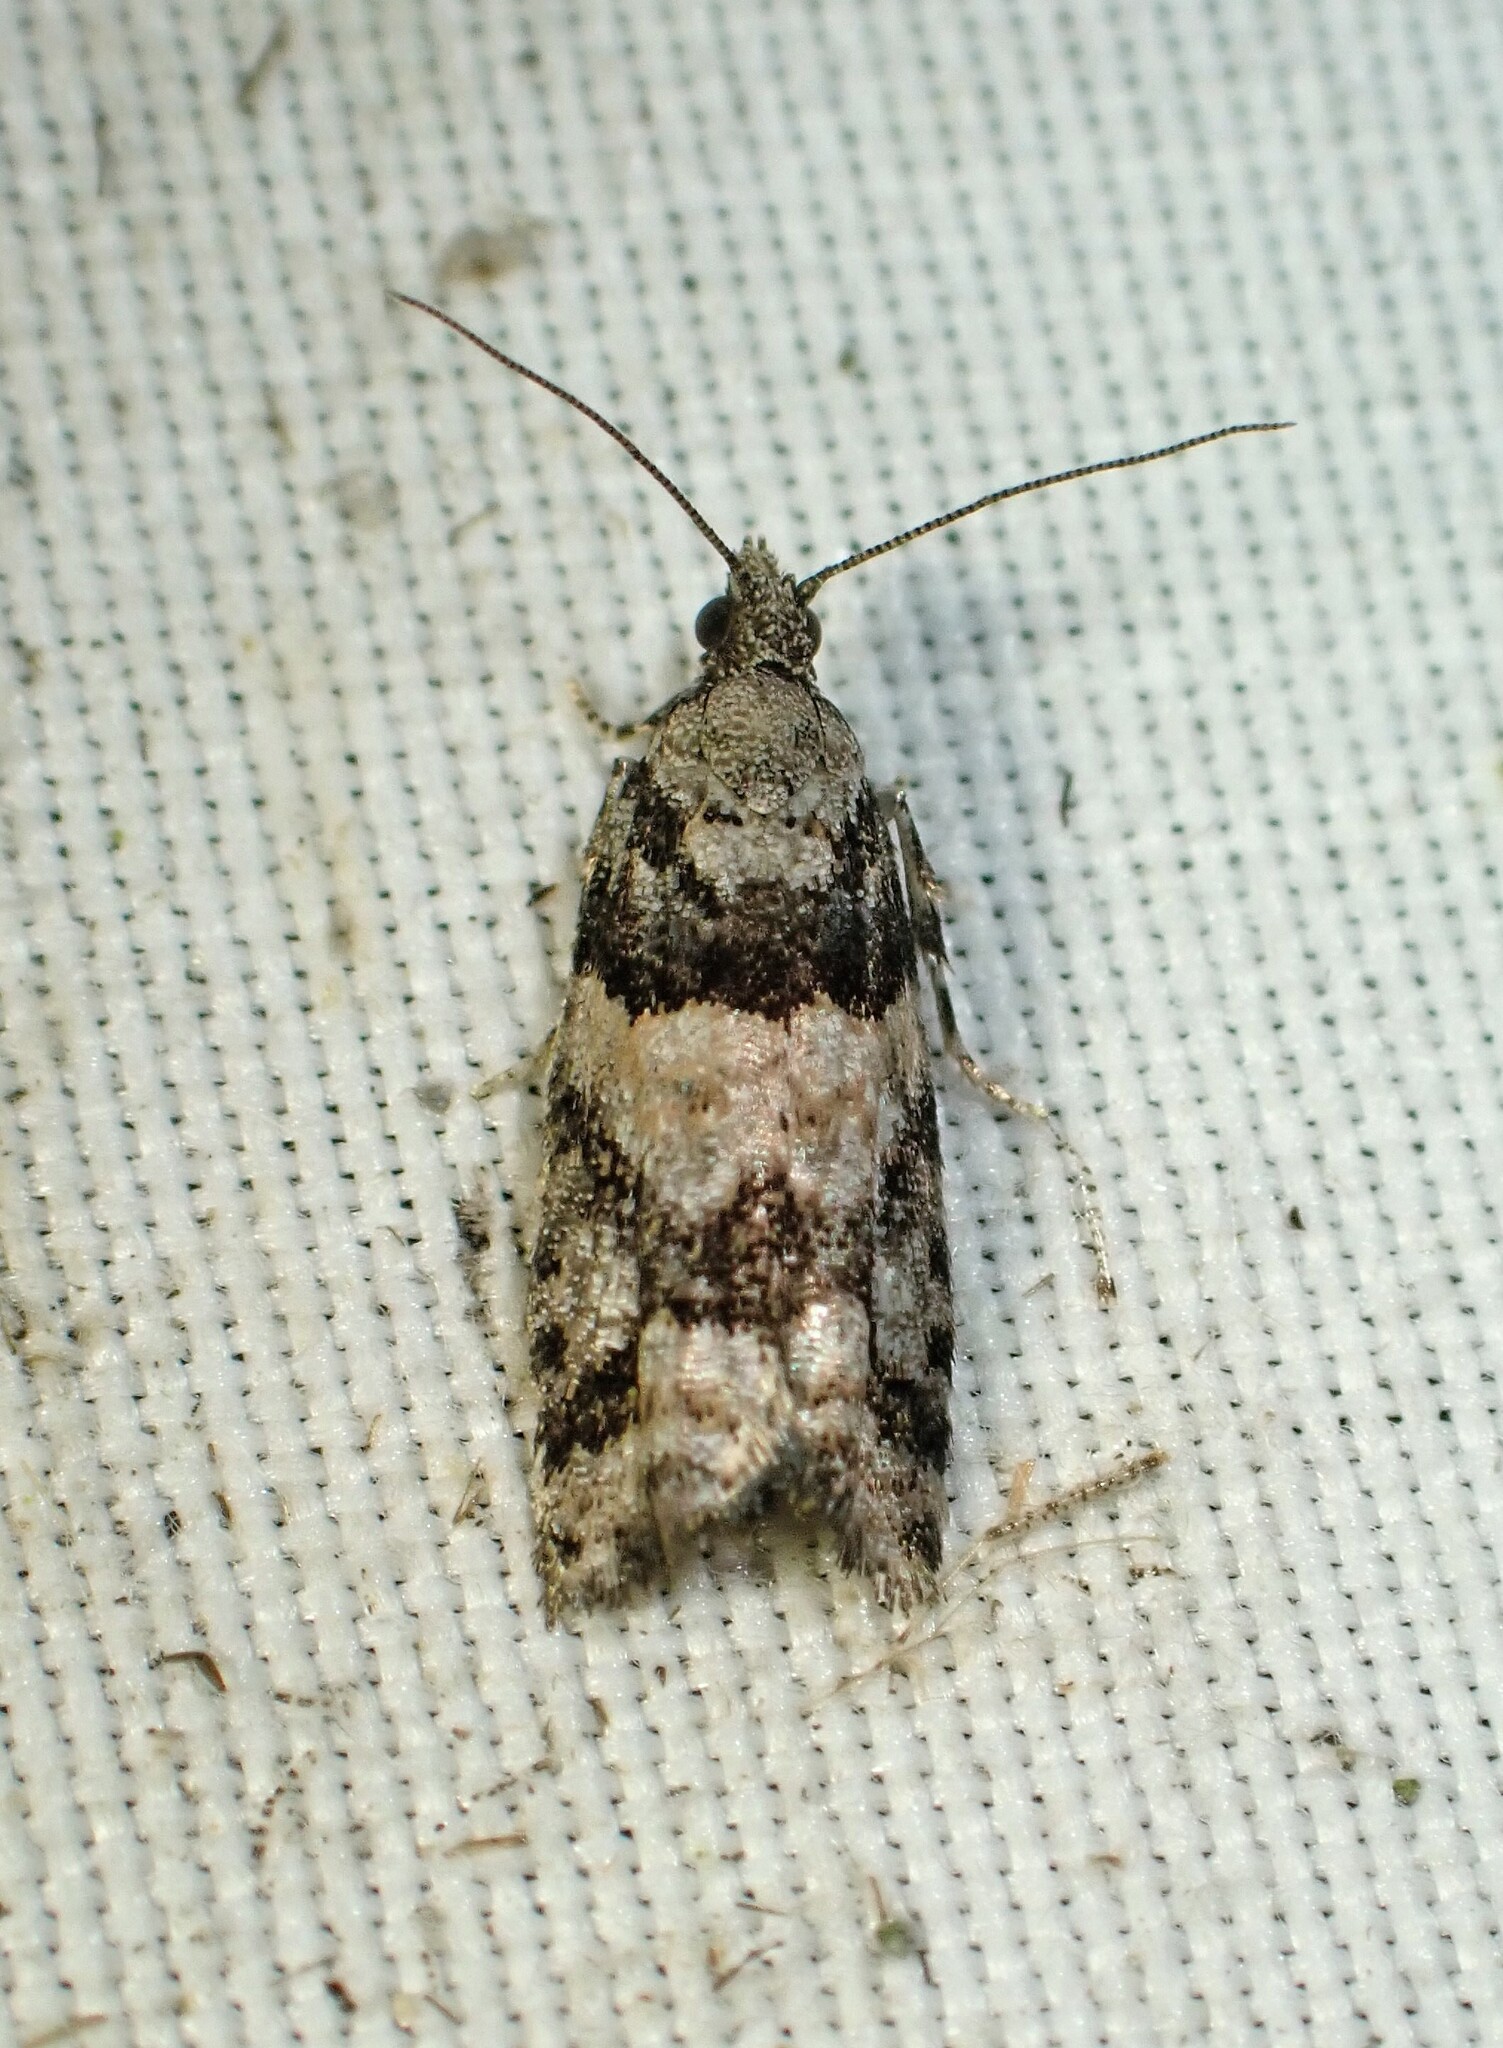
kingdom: Animalia
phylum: Arthropoda
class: Insecta
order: Lepidoptera
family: Tortricidae
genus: Epinotia
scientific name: Epinotia radicana
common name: Red-striped needleworm moth
